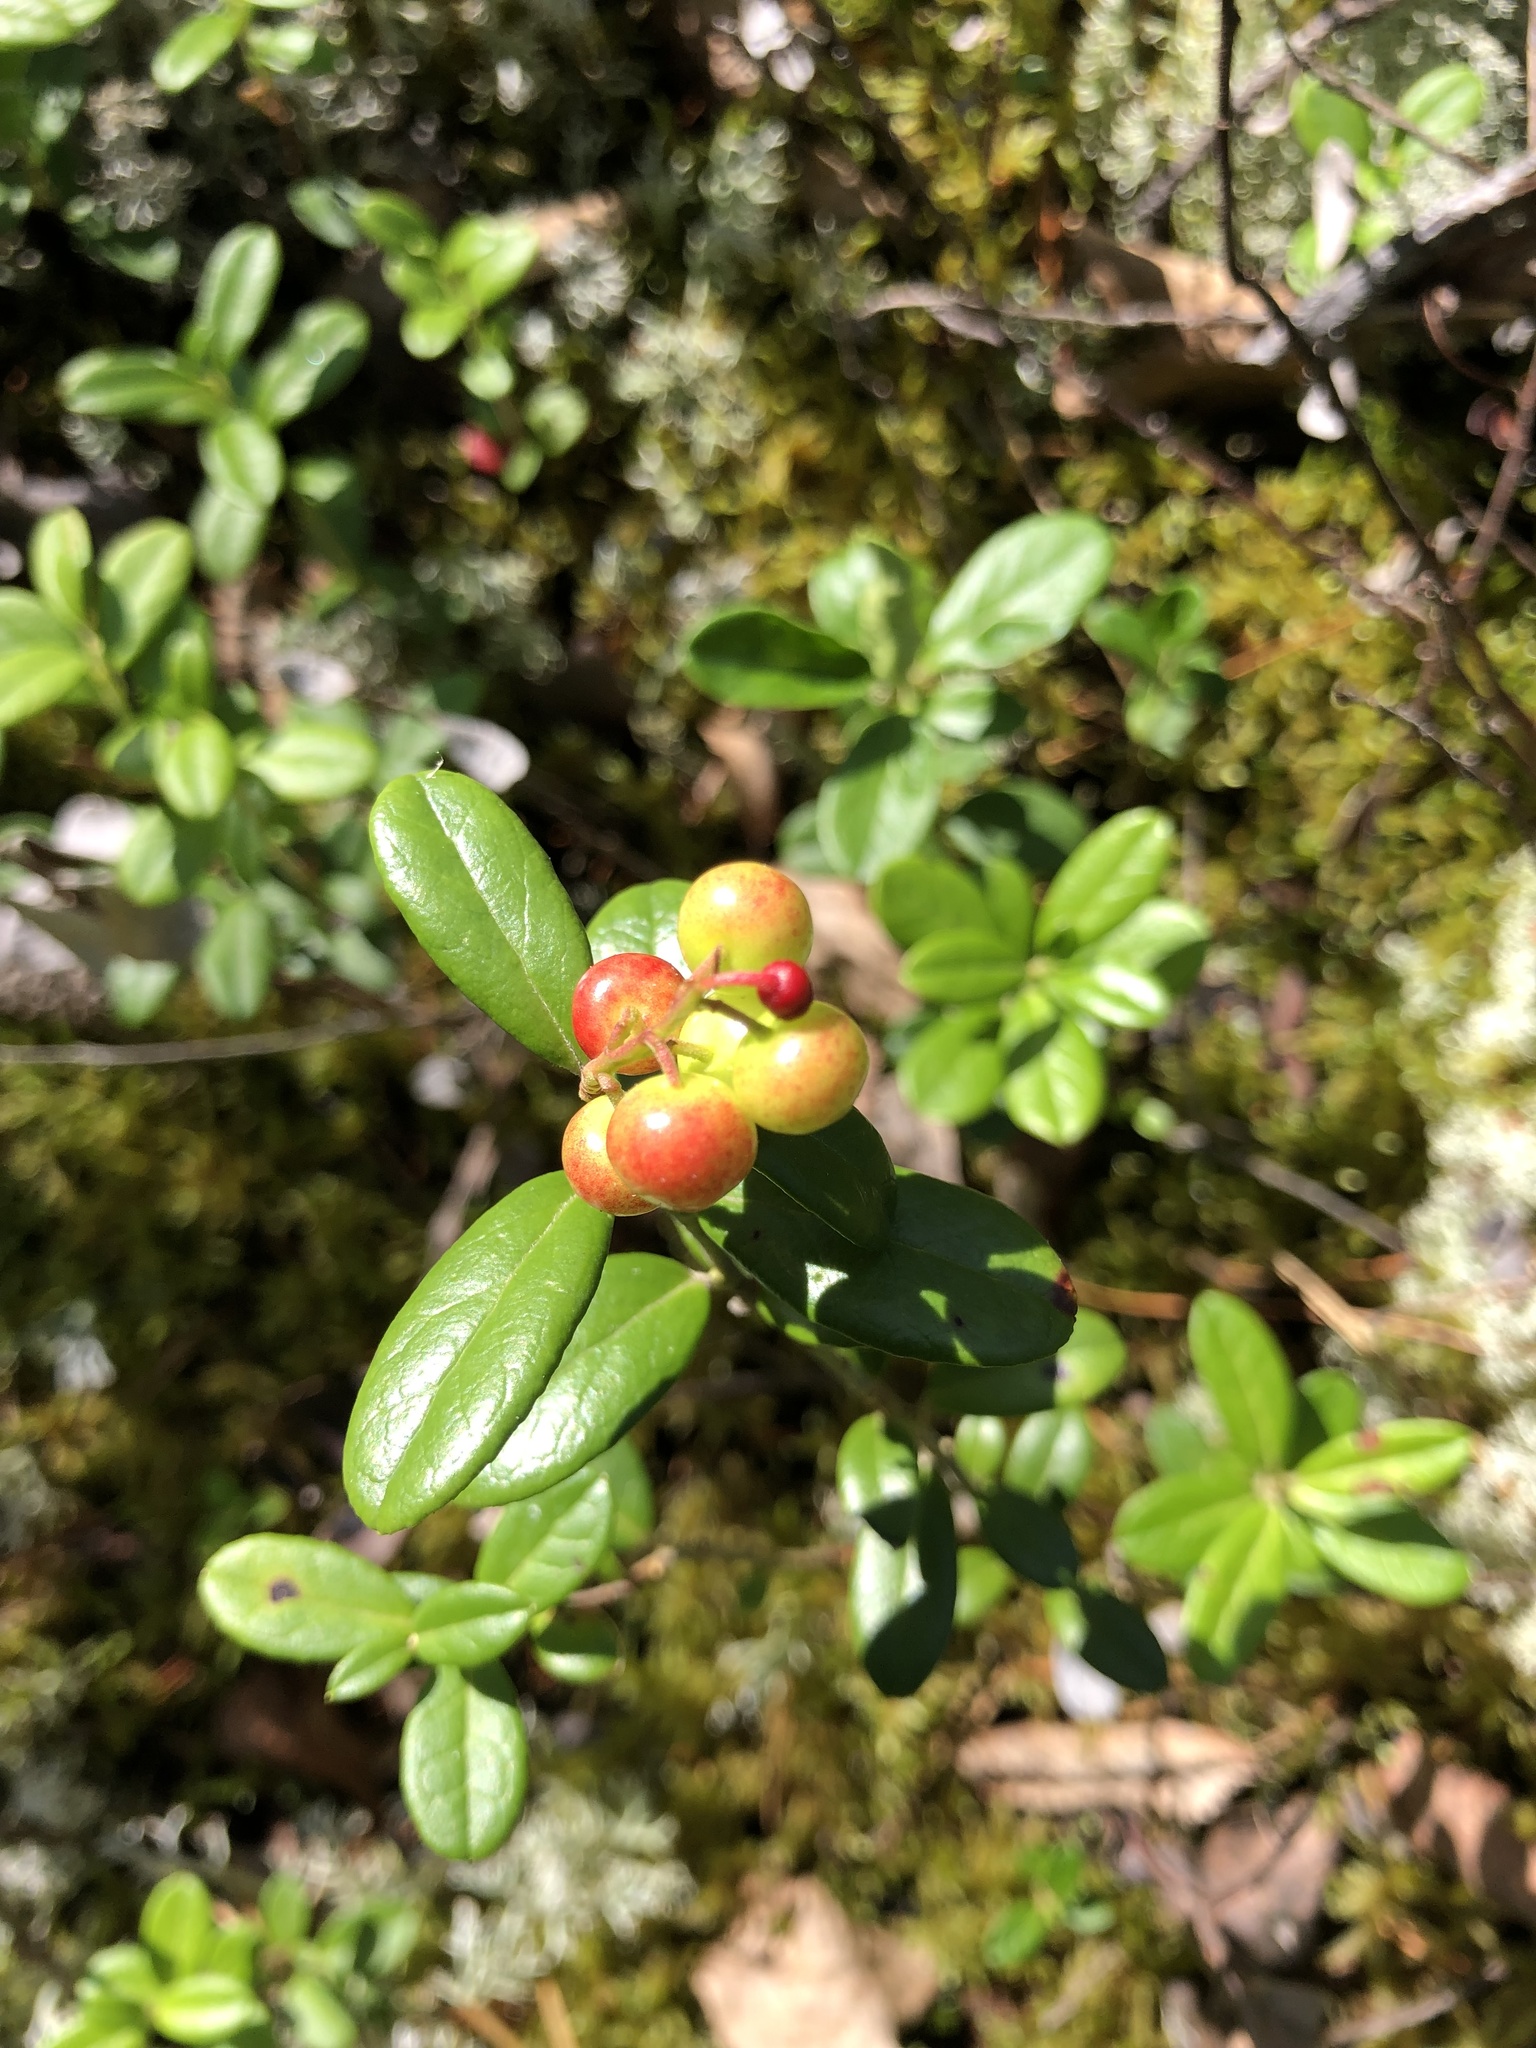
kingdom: Plantae
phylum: Tracheophyta
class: Magnoliopsida
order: Ericales
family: Ericaceae
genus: Vaccinium
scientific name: Vaccinium vitis-idaea
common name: Cowberry
